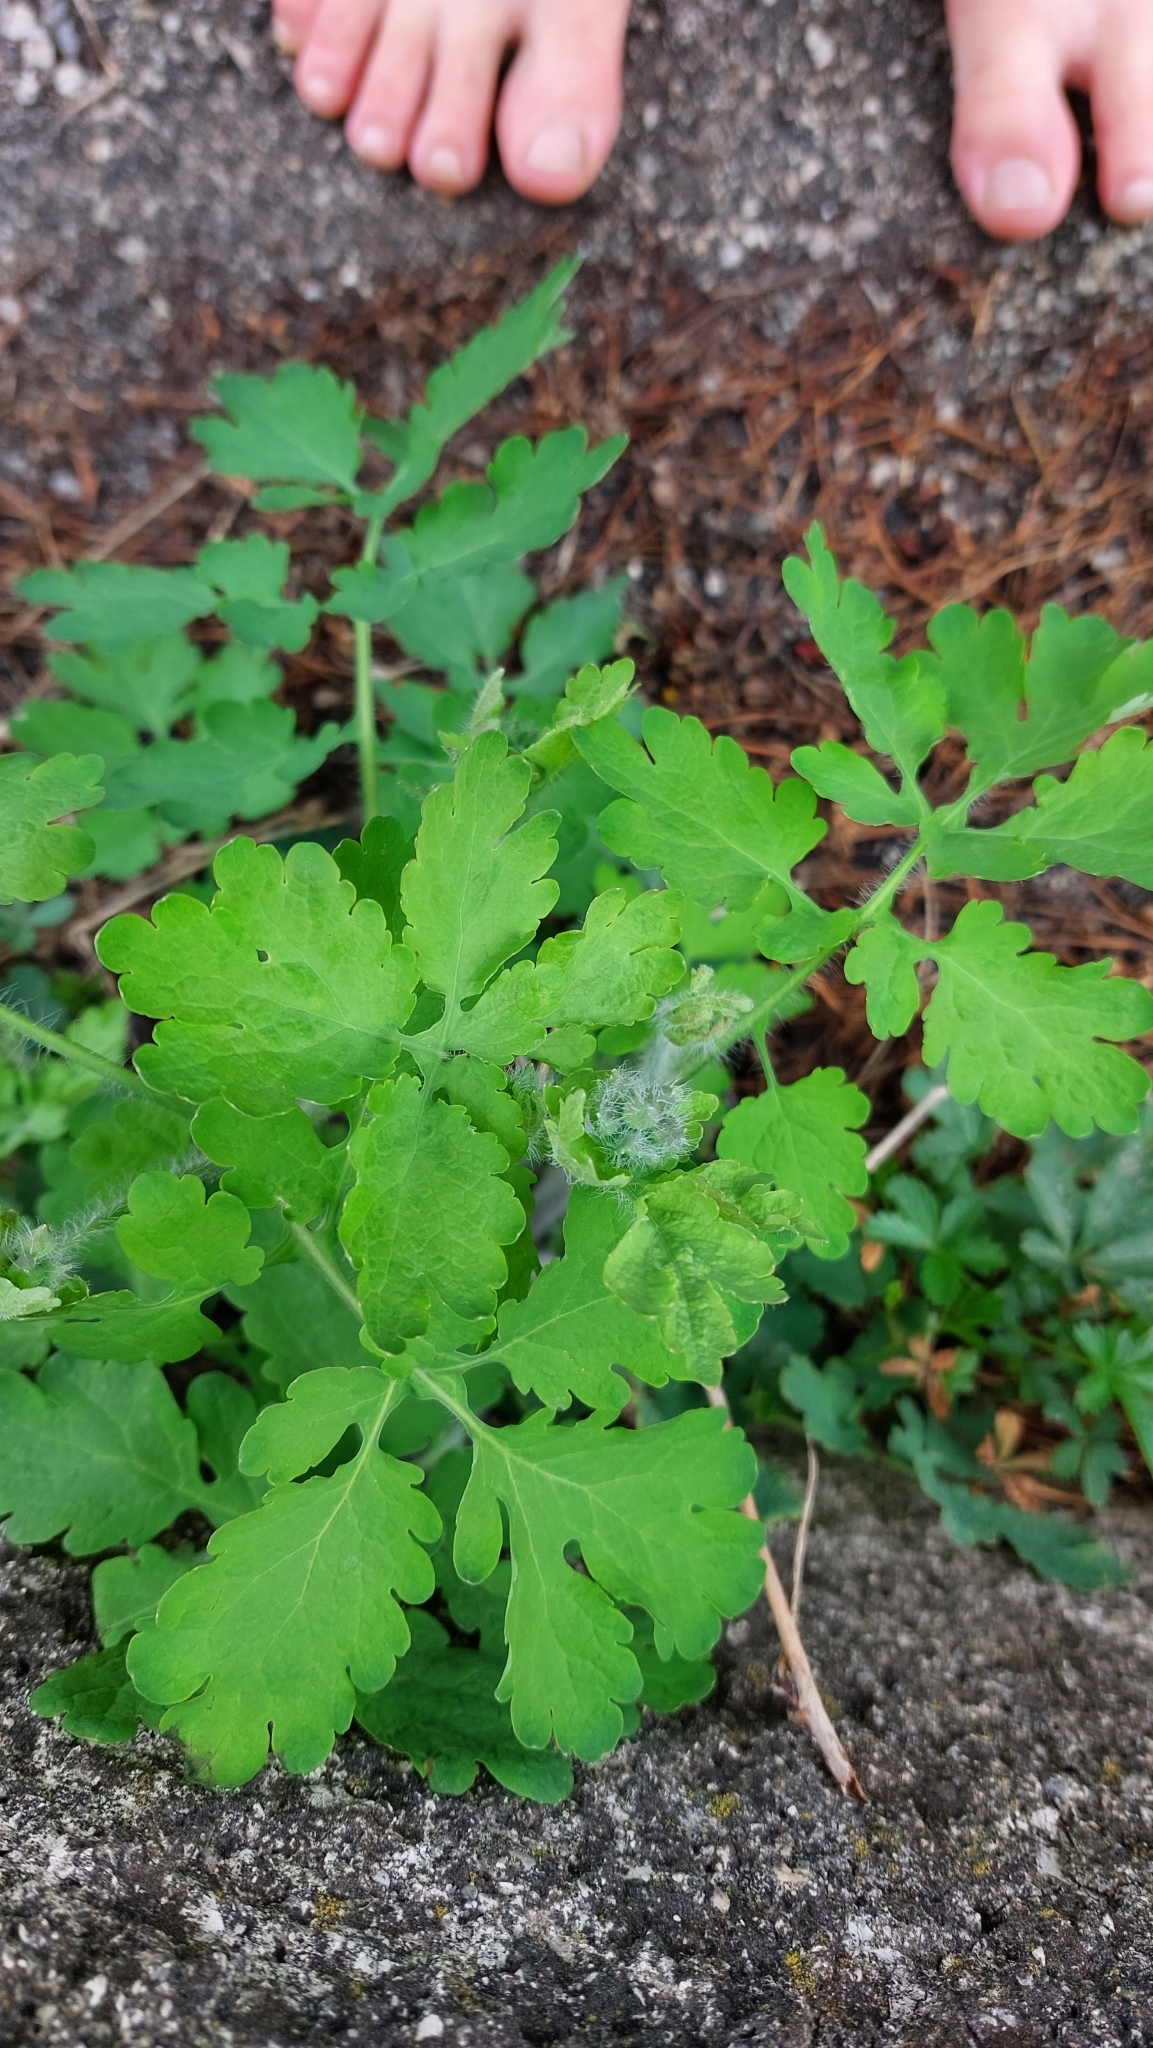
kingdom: Plantae
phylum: Tracheophyta
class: Magnoliopsida
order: Ranunculales
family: Papaveraceae
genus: Chelidonium
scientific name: Chelidonium majus
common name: Greater celandine
